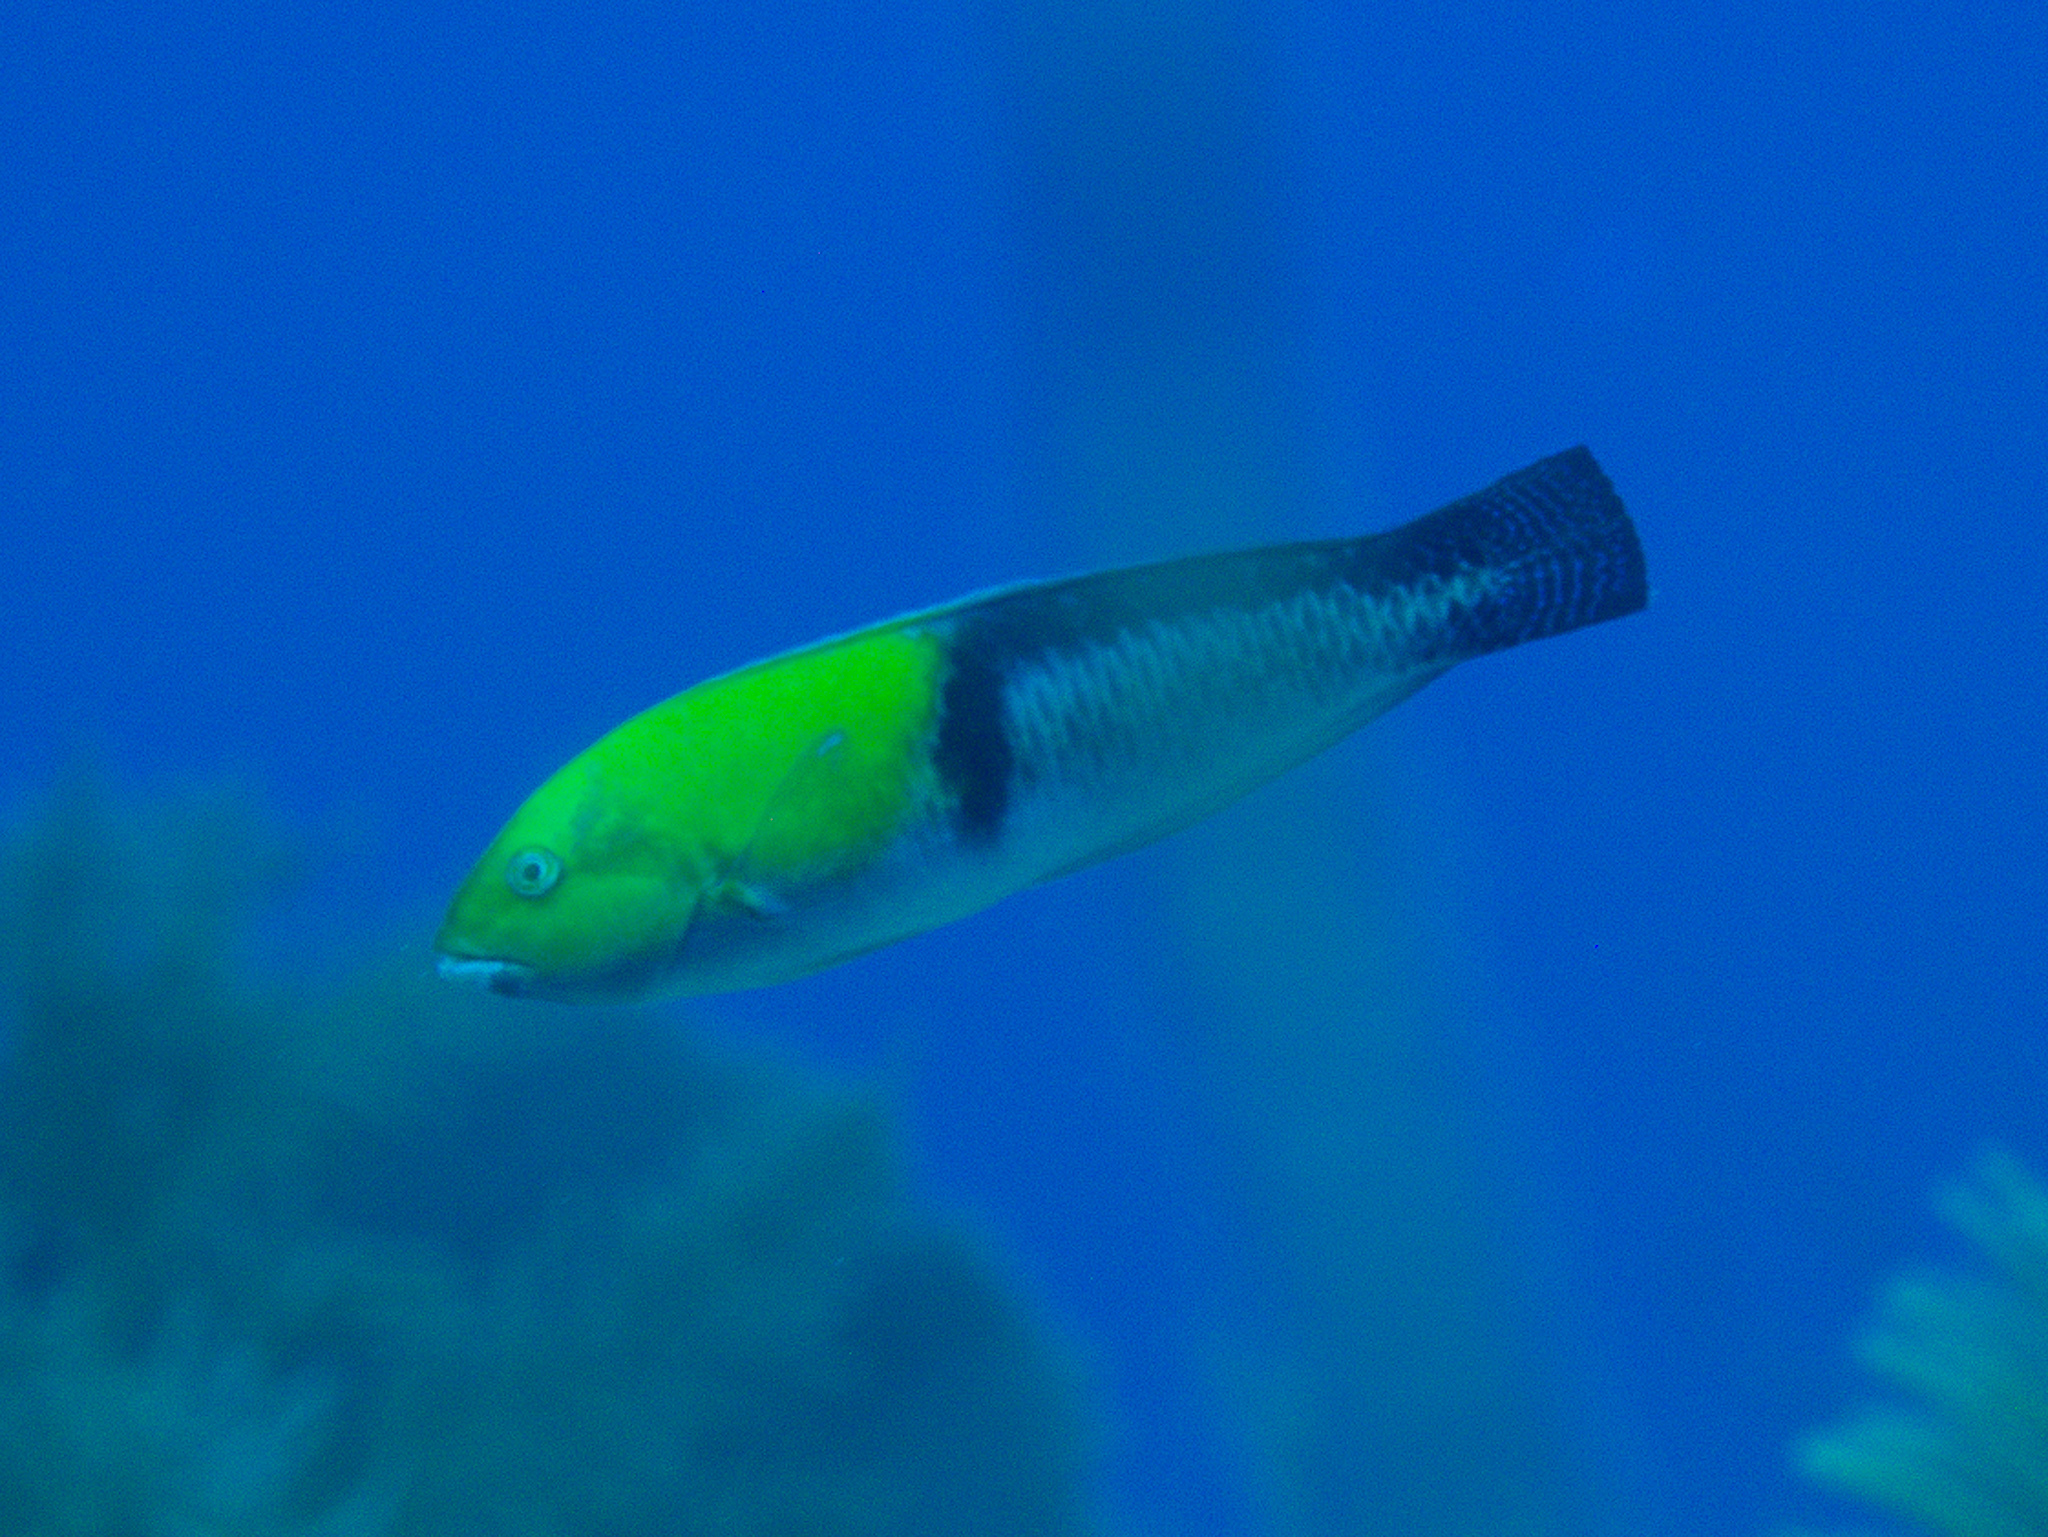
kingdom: Animalia
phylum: Chordata
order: Perciformes
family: Labridae
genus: Halichoeres
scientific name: Halichoeres garnoti
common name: Yellowhead wrasse
